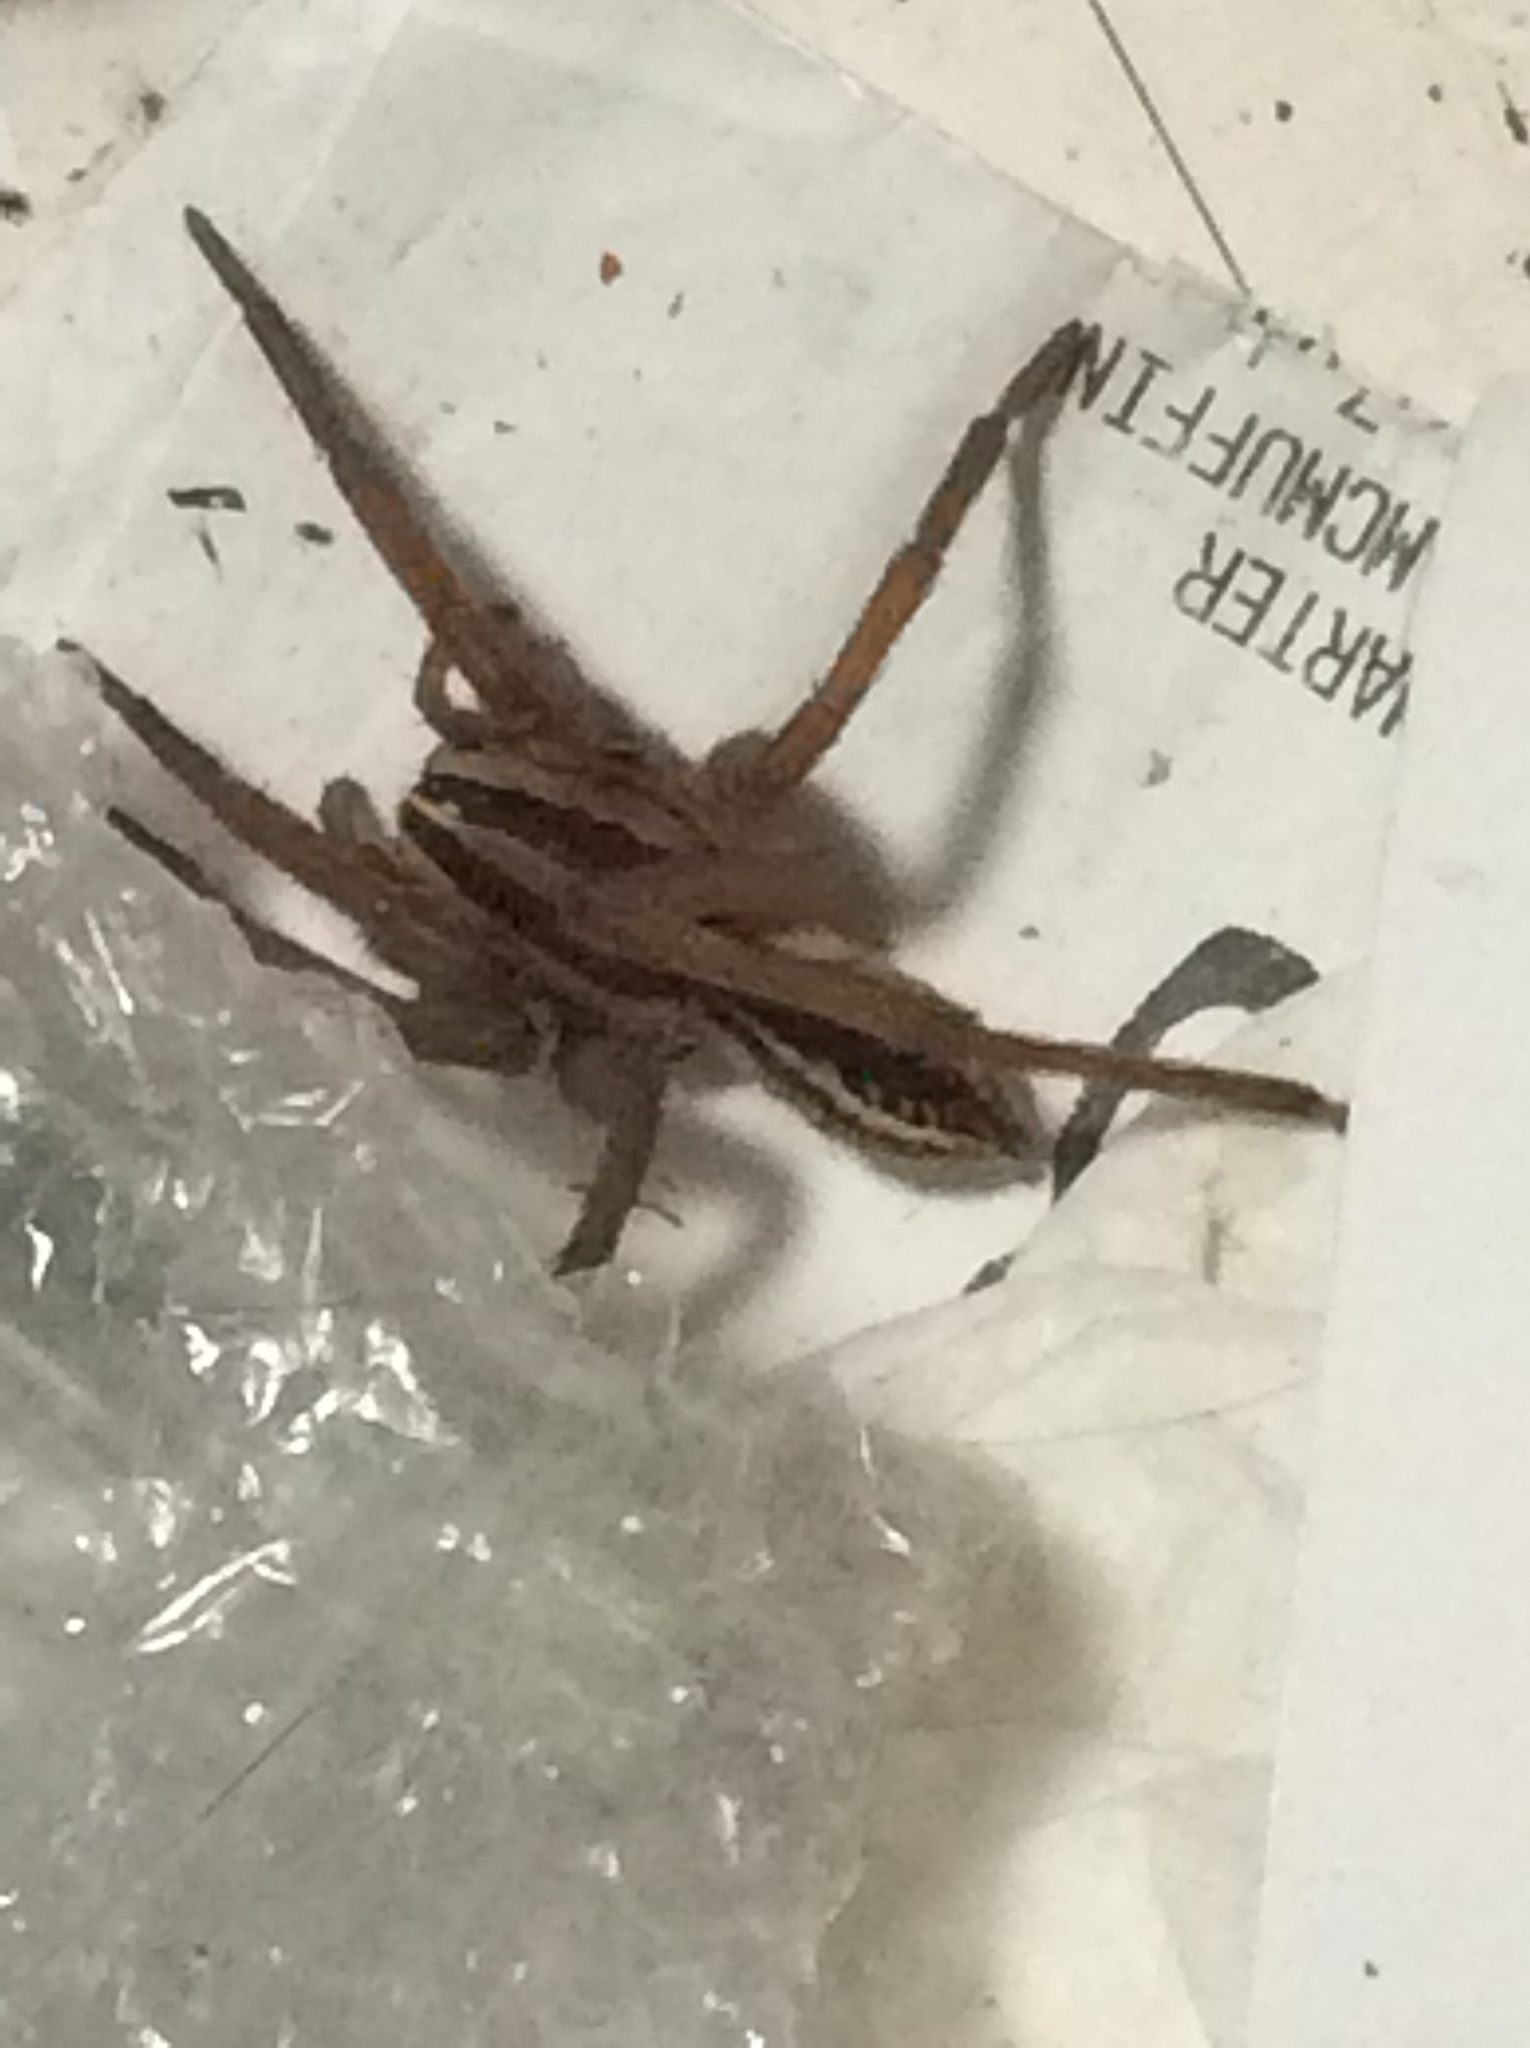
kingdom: Animalia
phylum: Arthropoda
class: Arachnida
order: Araneae
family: Lycosidae
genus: Rabidosa
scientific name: Rabidosa rabida
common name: Rabid wolf spider
